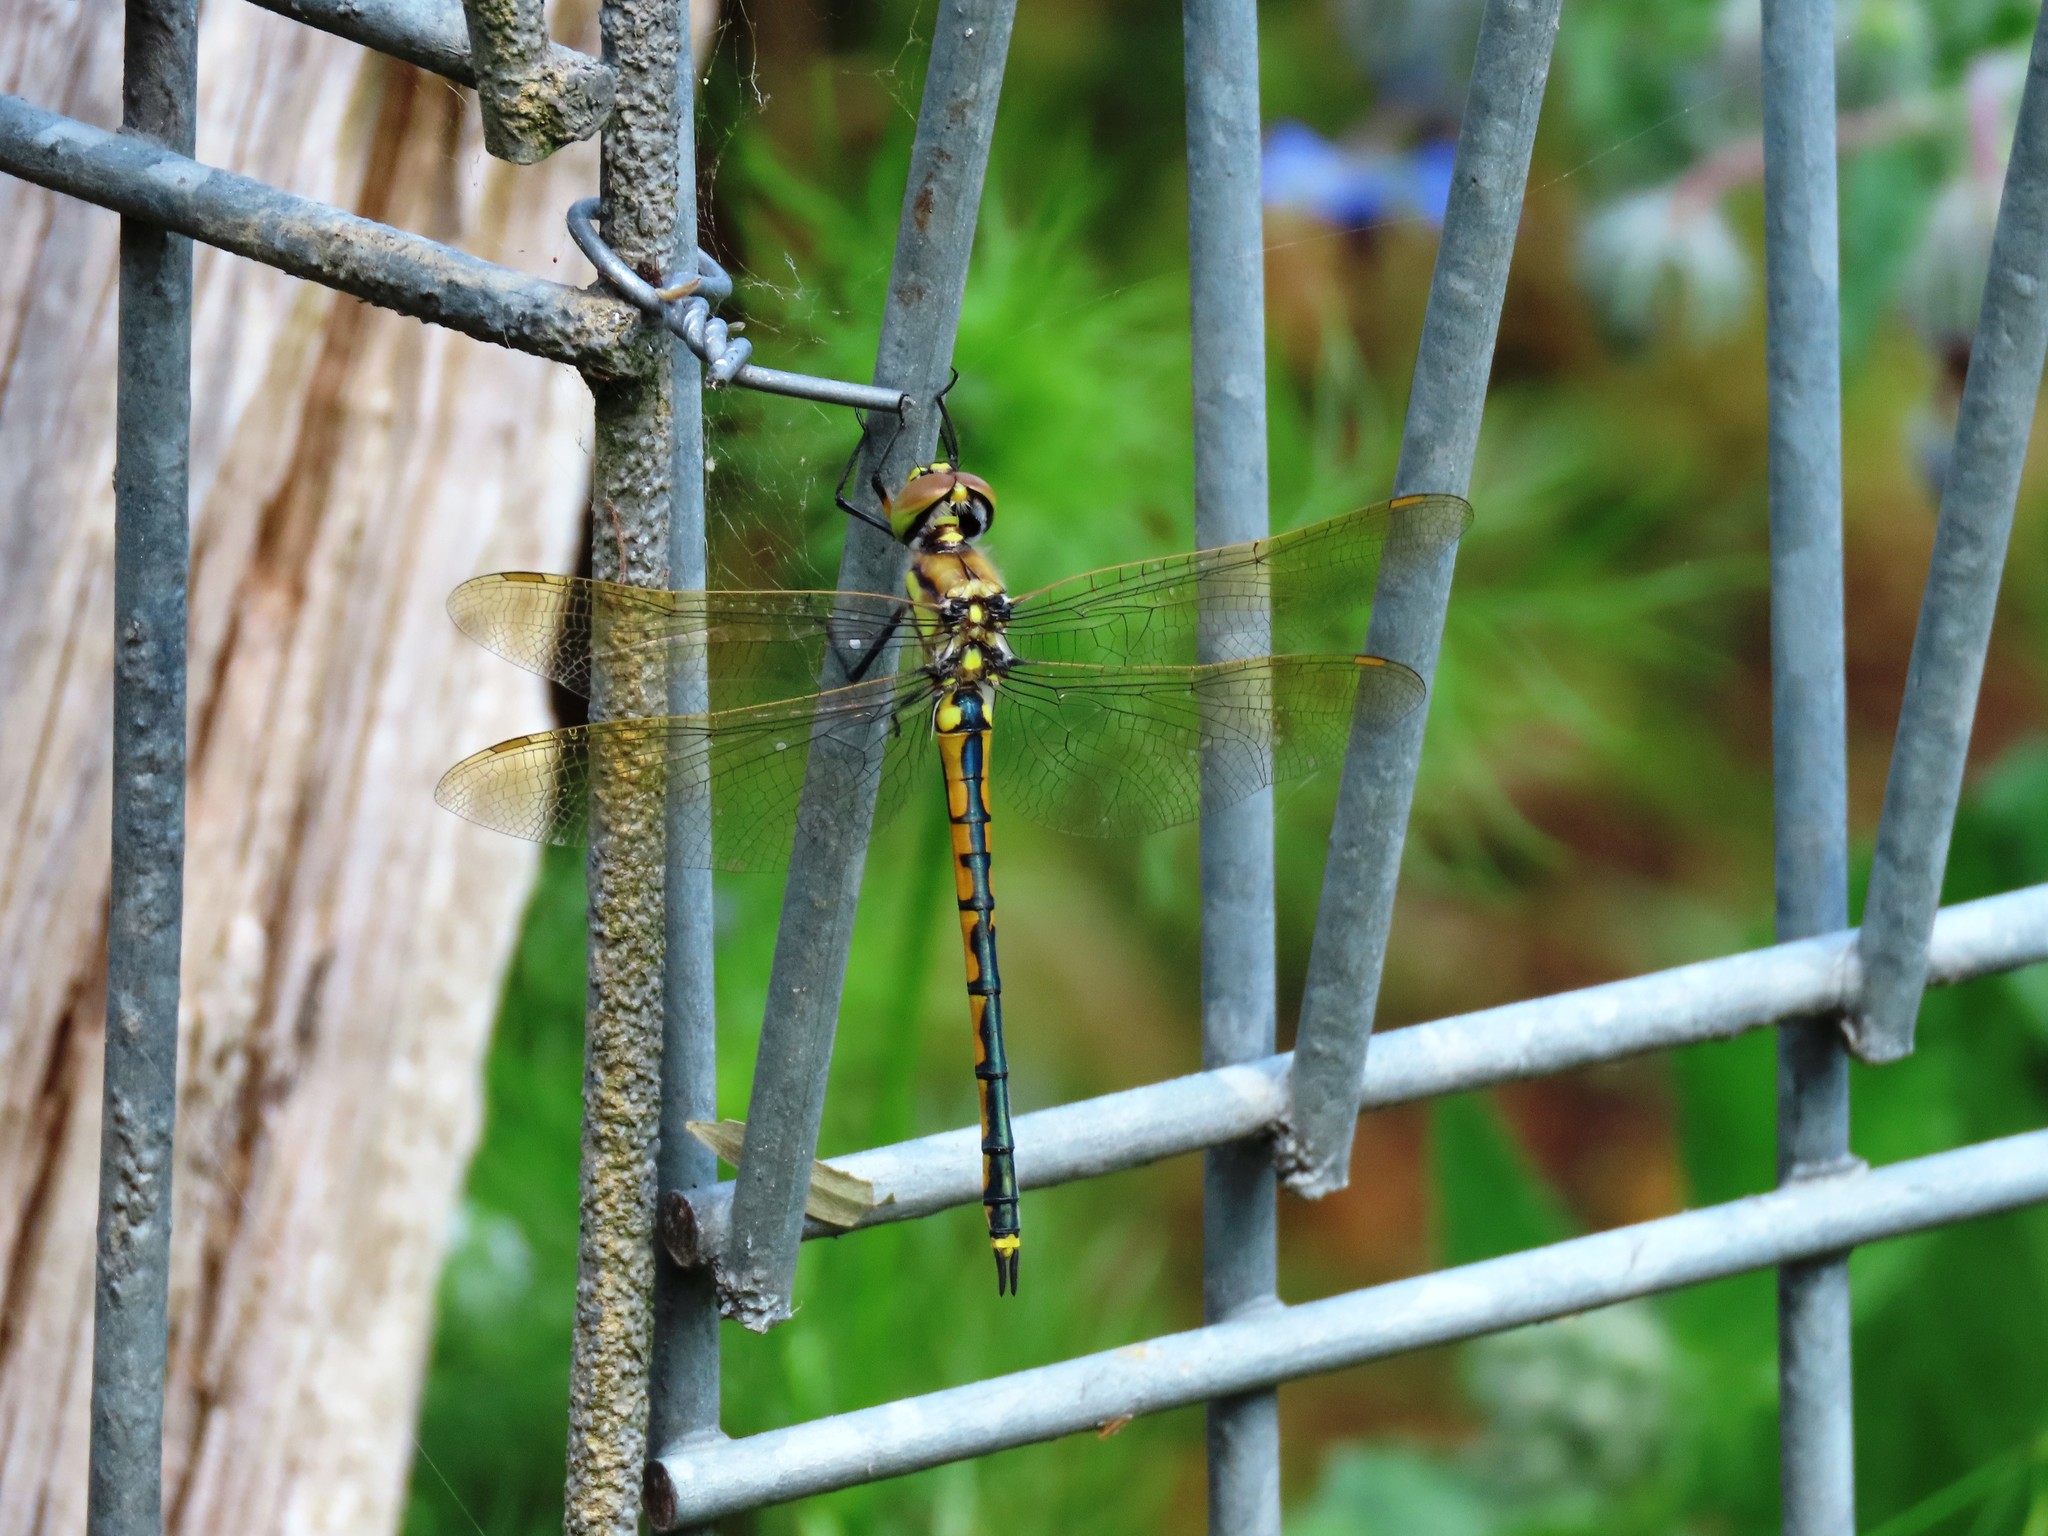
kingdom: Animalia
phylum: Arthropoda
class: Insecta
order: Odonata
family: Corduliidae
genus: Hemicordulia
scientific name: Hemicordulia tau
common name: Tau emerald
